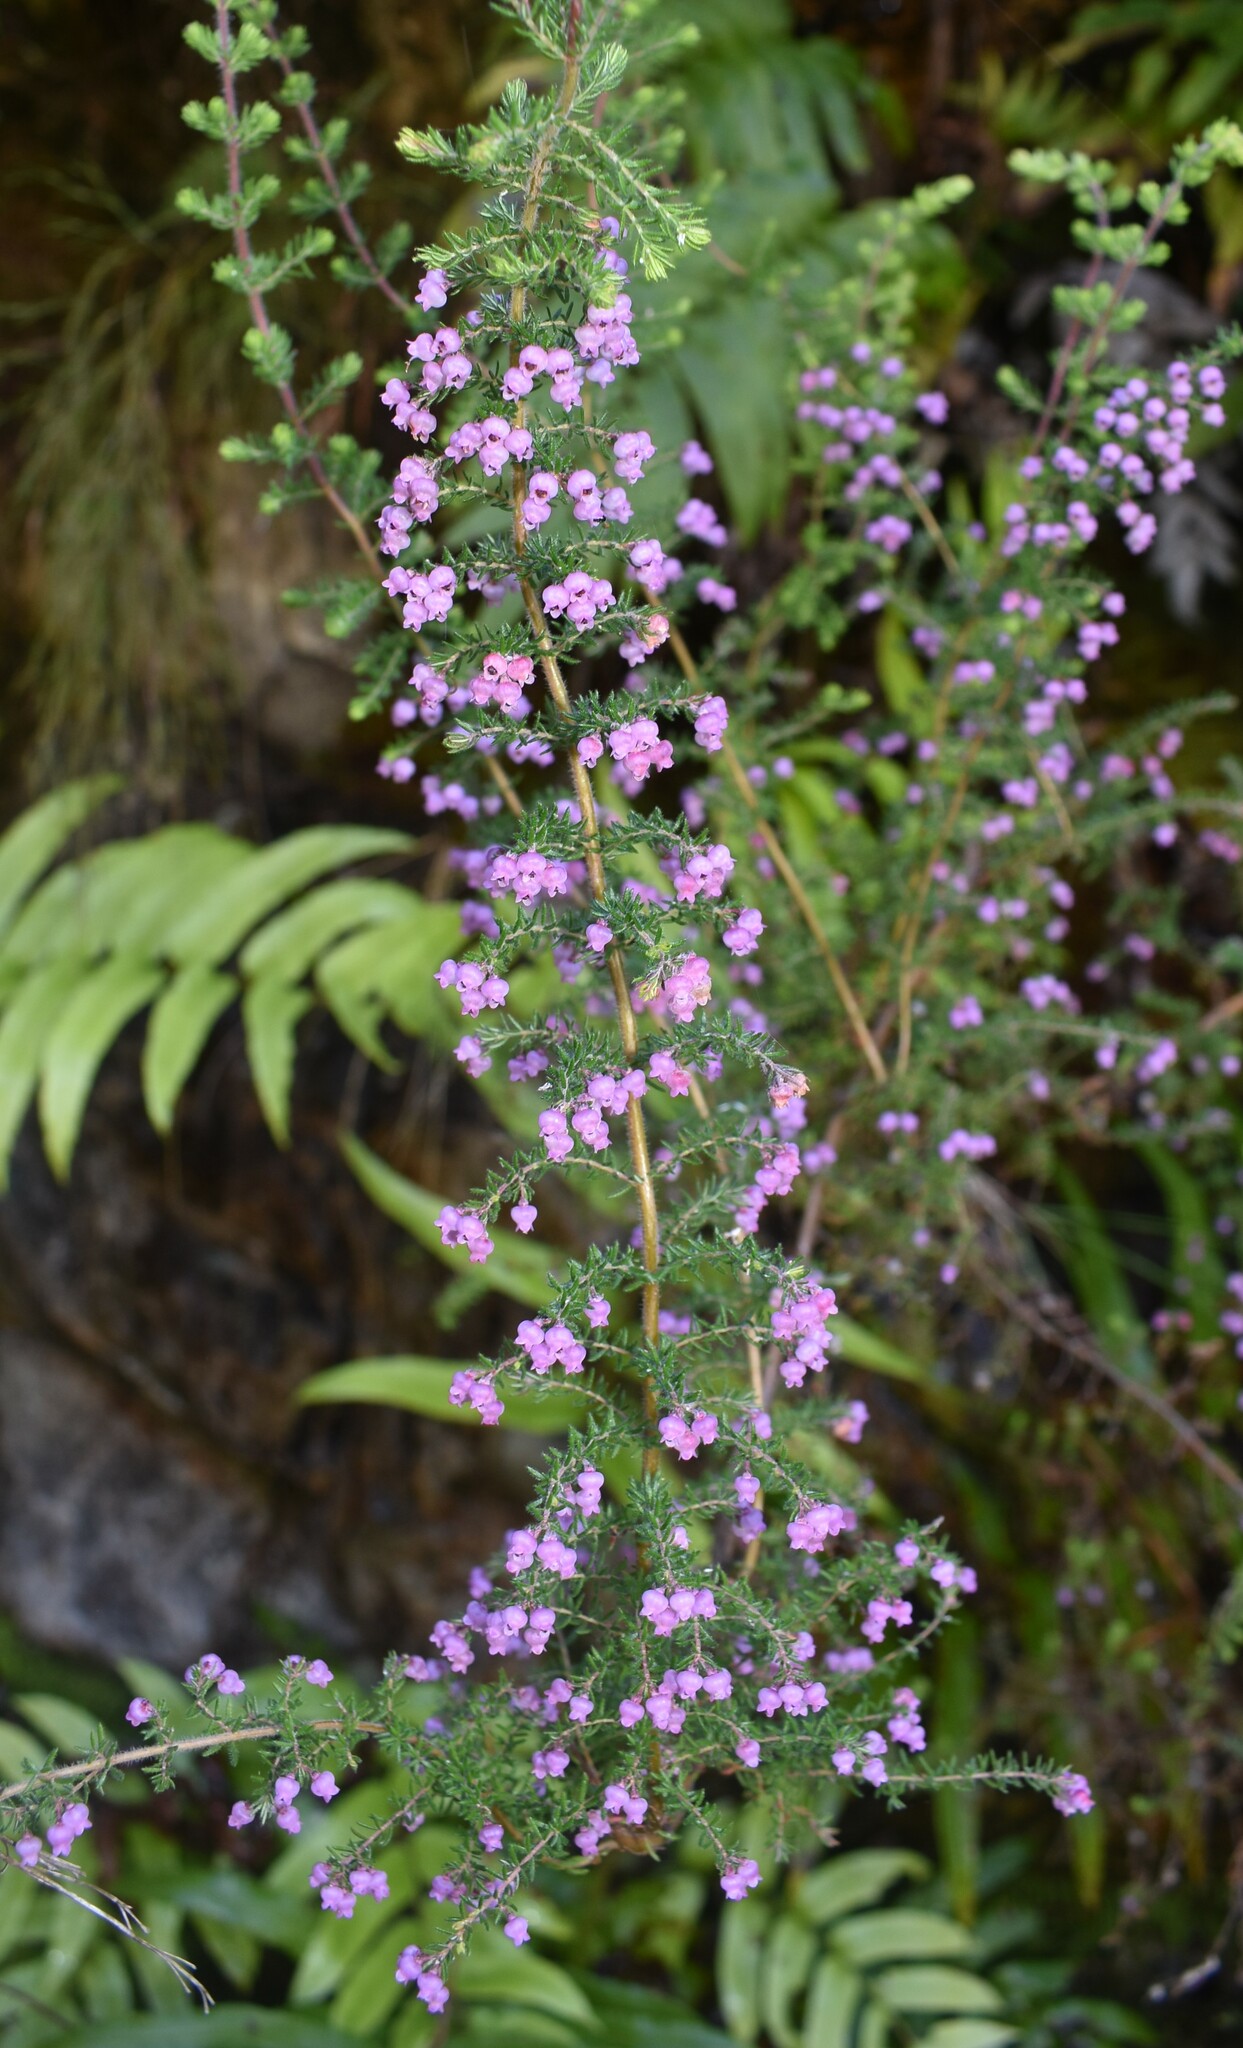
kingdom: Plantae
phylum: Tracheophyta
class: Magnoliopsida
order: Ericales
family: Ericaceae
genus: Erica
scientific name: Erica bergiana
